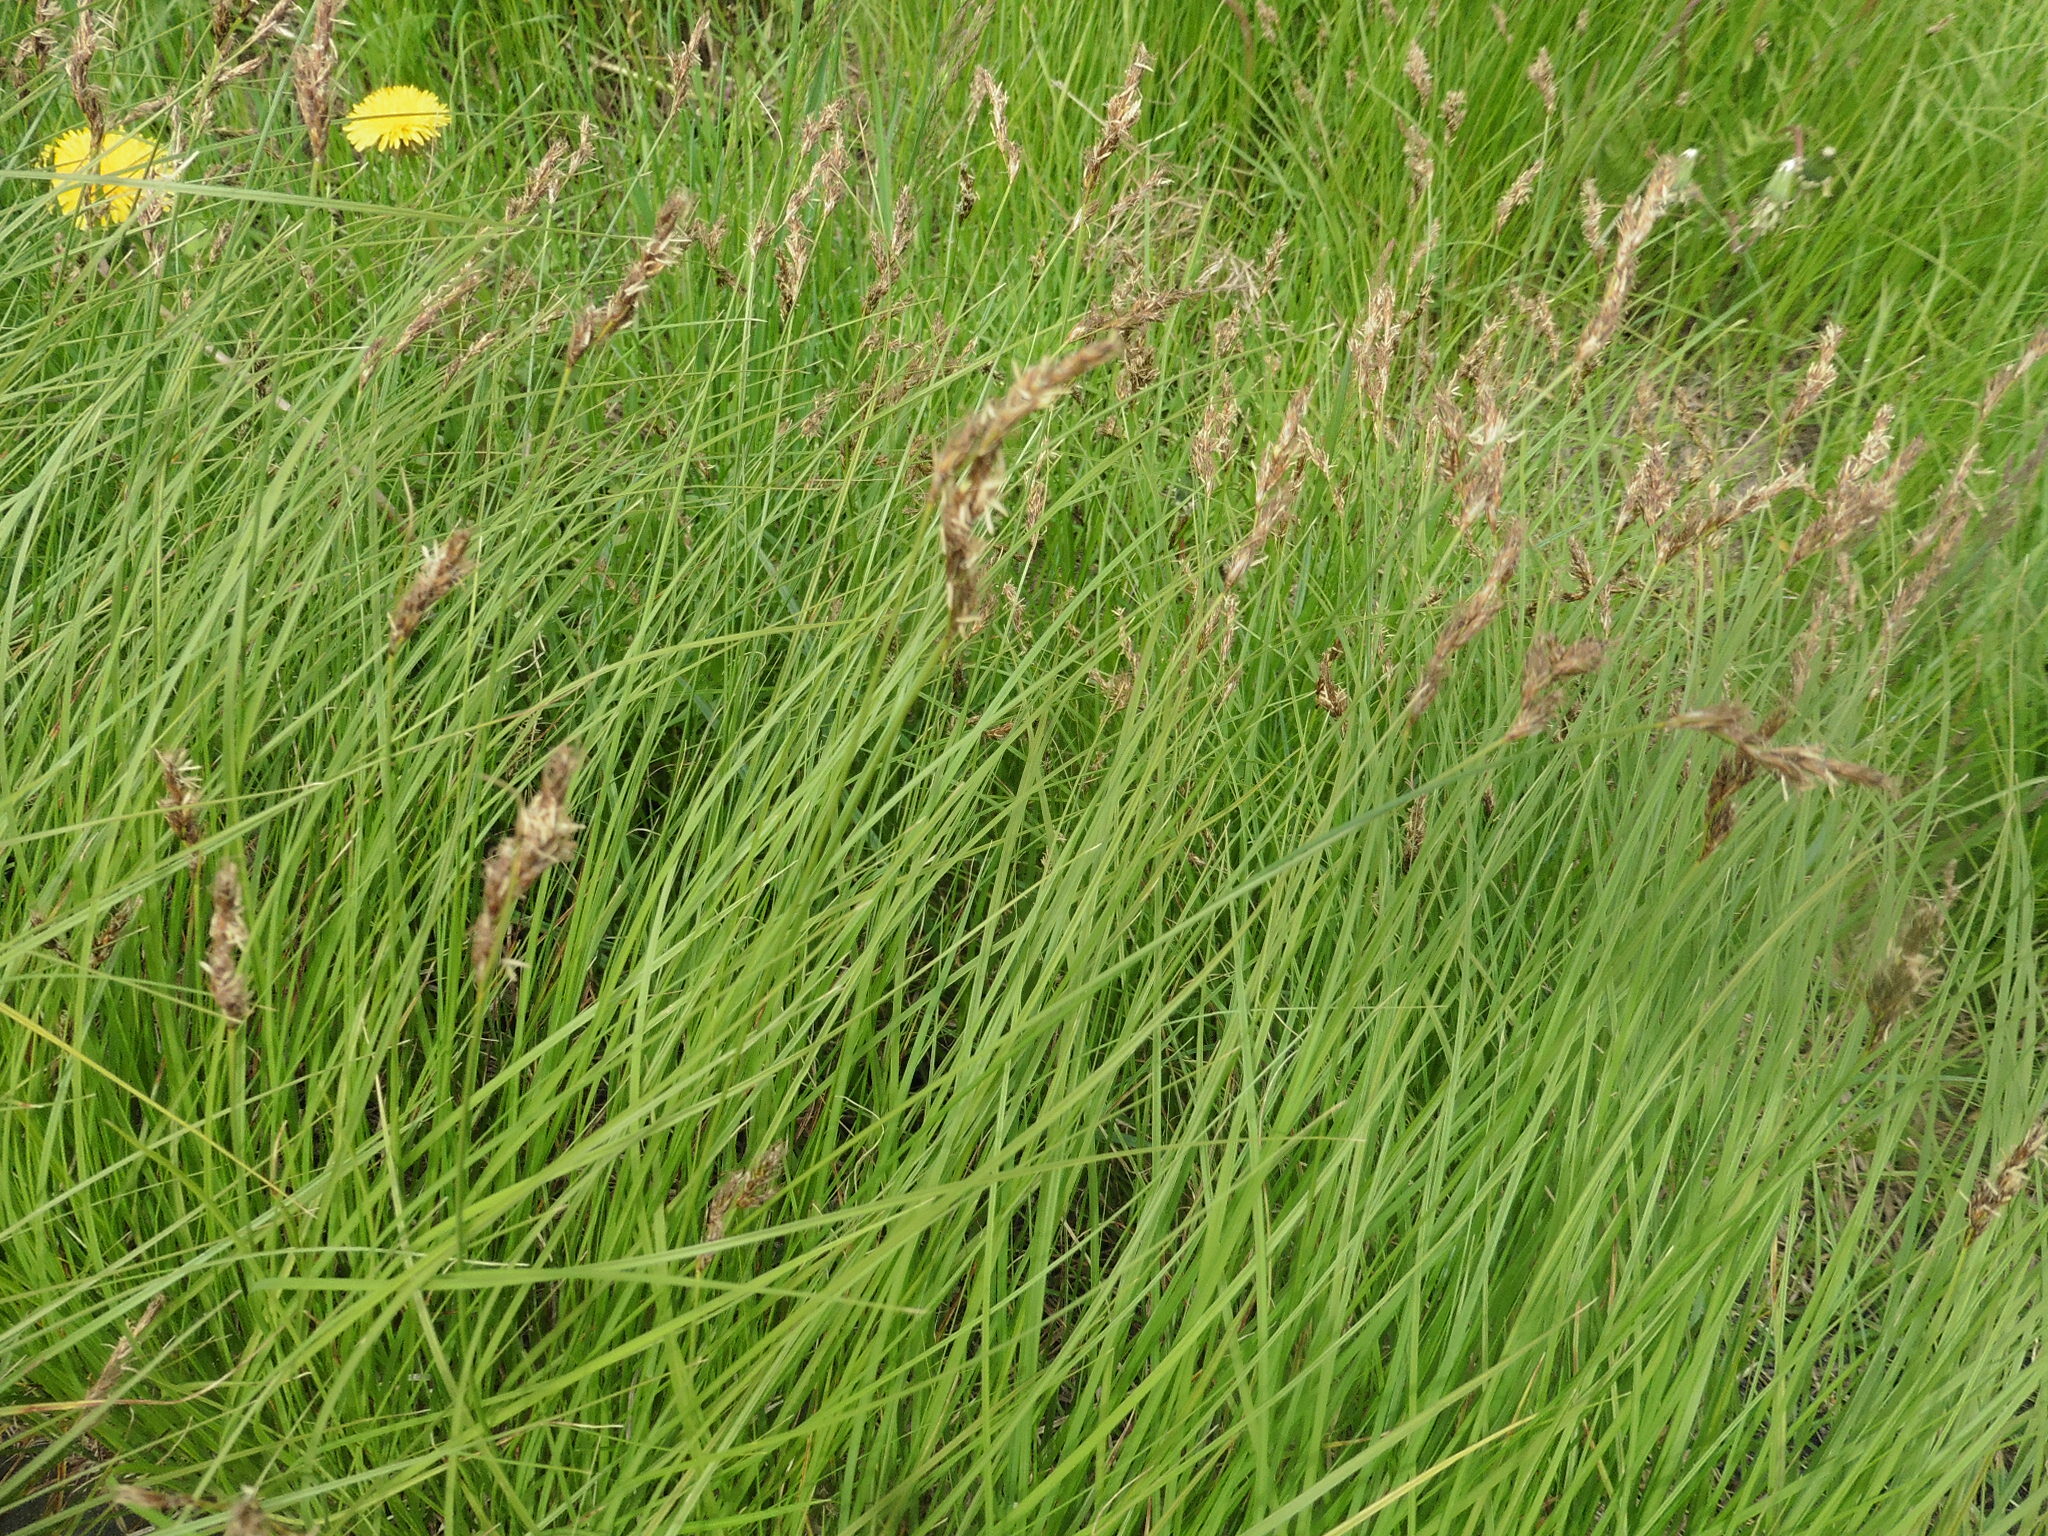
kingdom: Plantae
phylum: Tracheophyta
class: Liliopsida
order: Poales
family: Cyperaceae
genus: Carex
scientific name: Carex praecox
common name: Early sedge
